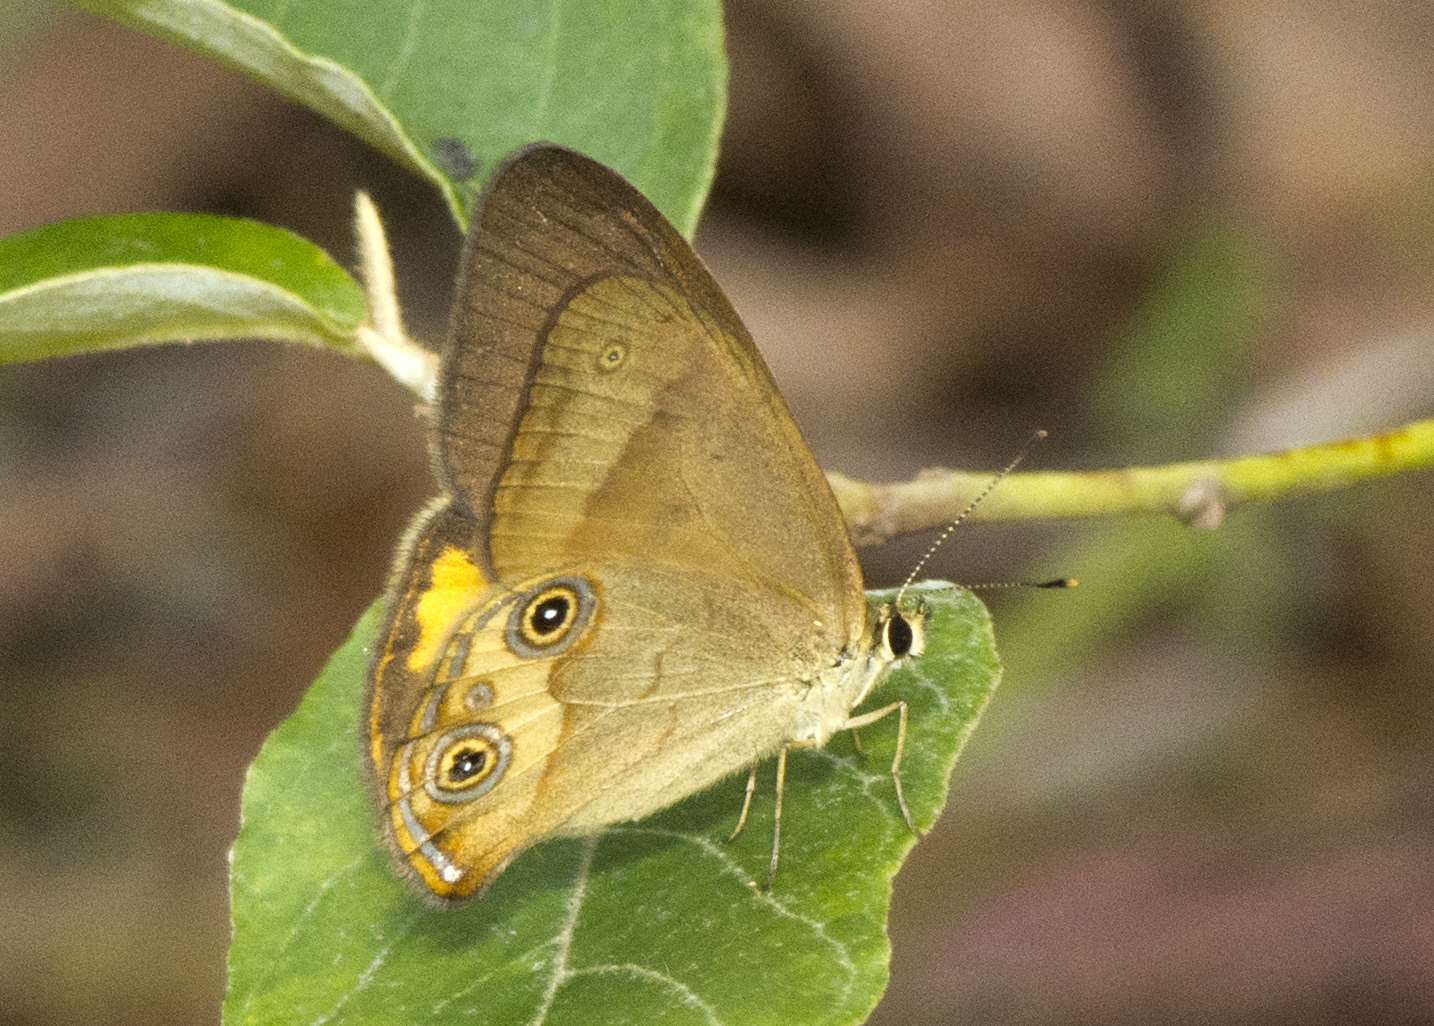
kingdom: Animalia
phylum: Arthropoda
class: Insecta
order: Lepidoptera
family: Nymphalidae
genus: Hypocysta
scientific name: Hypocysta metirius
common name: Brown ringlet
